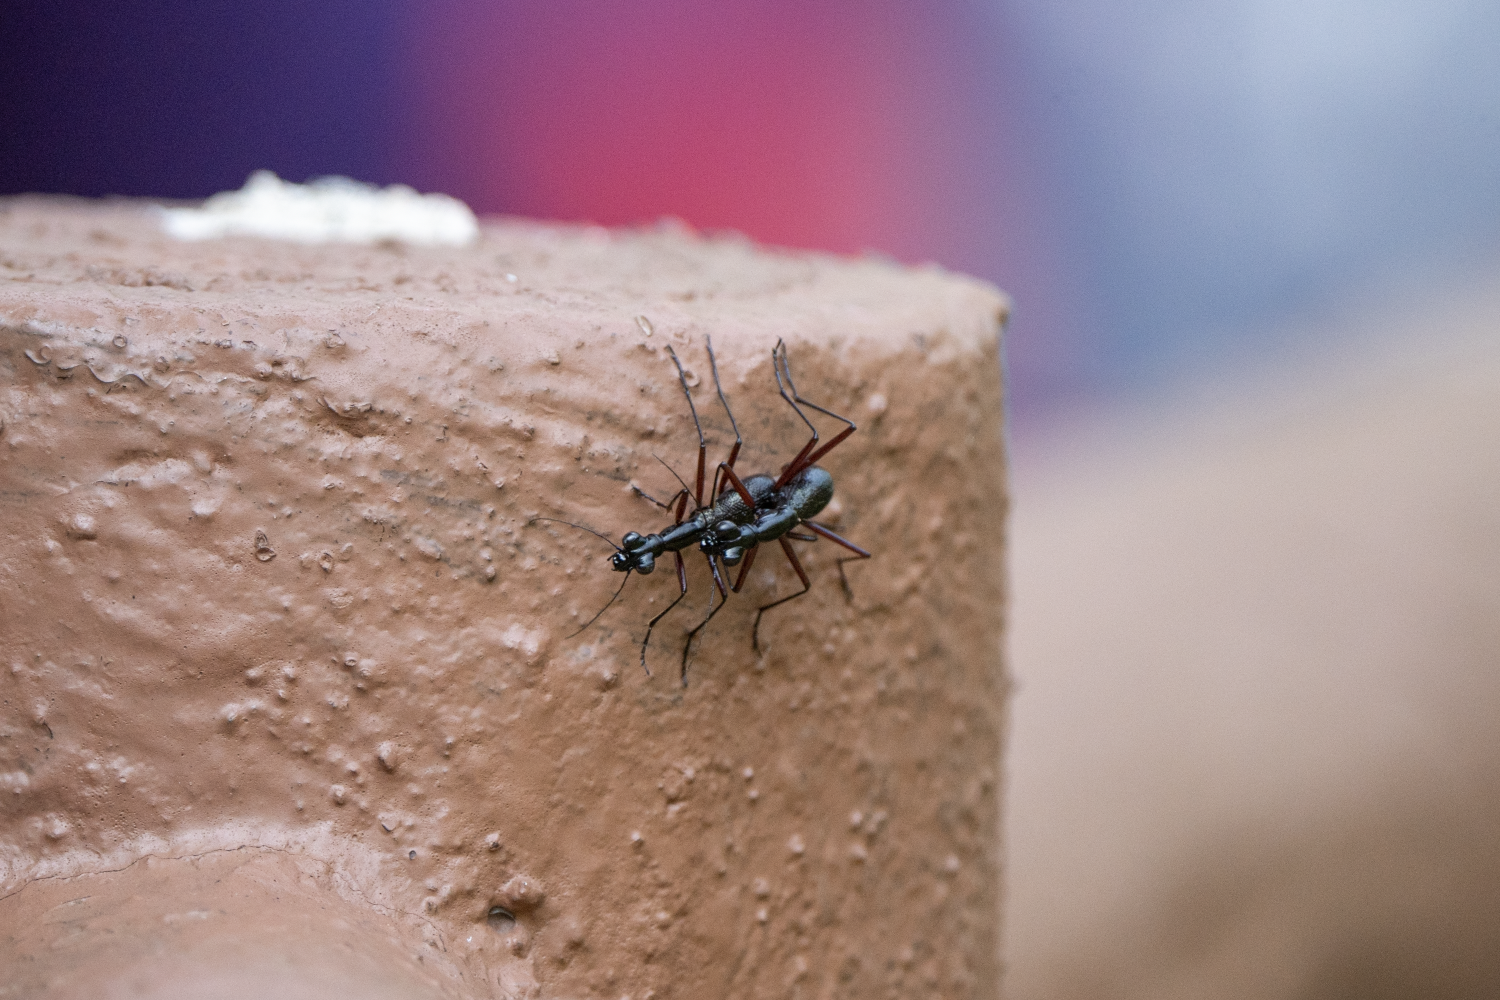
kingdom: Animalia
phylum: Arthropoda
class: Insecta
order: Coleoptera
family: Carabidae
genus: Tricondyla
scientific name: Tricondyla pulchripes
